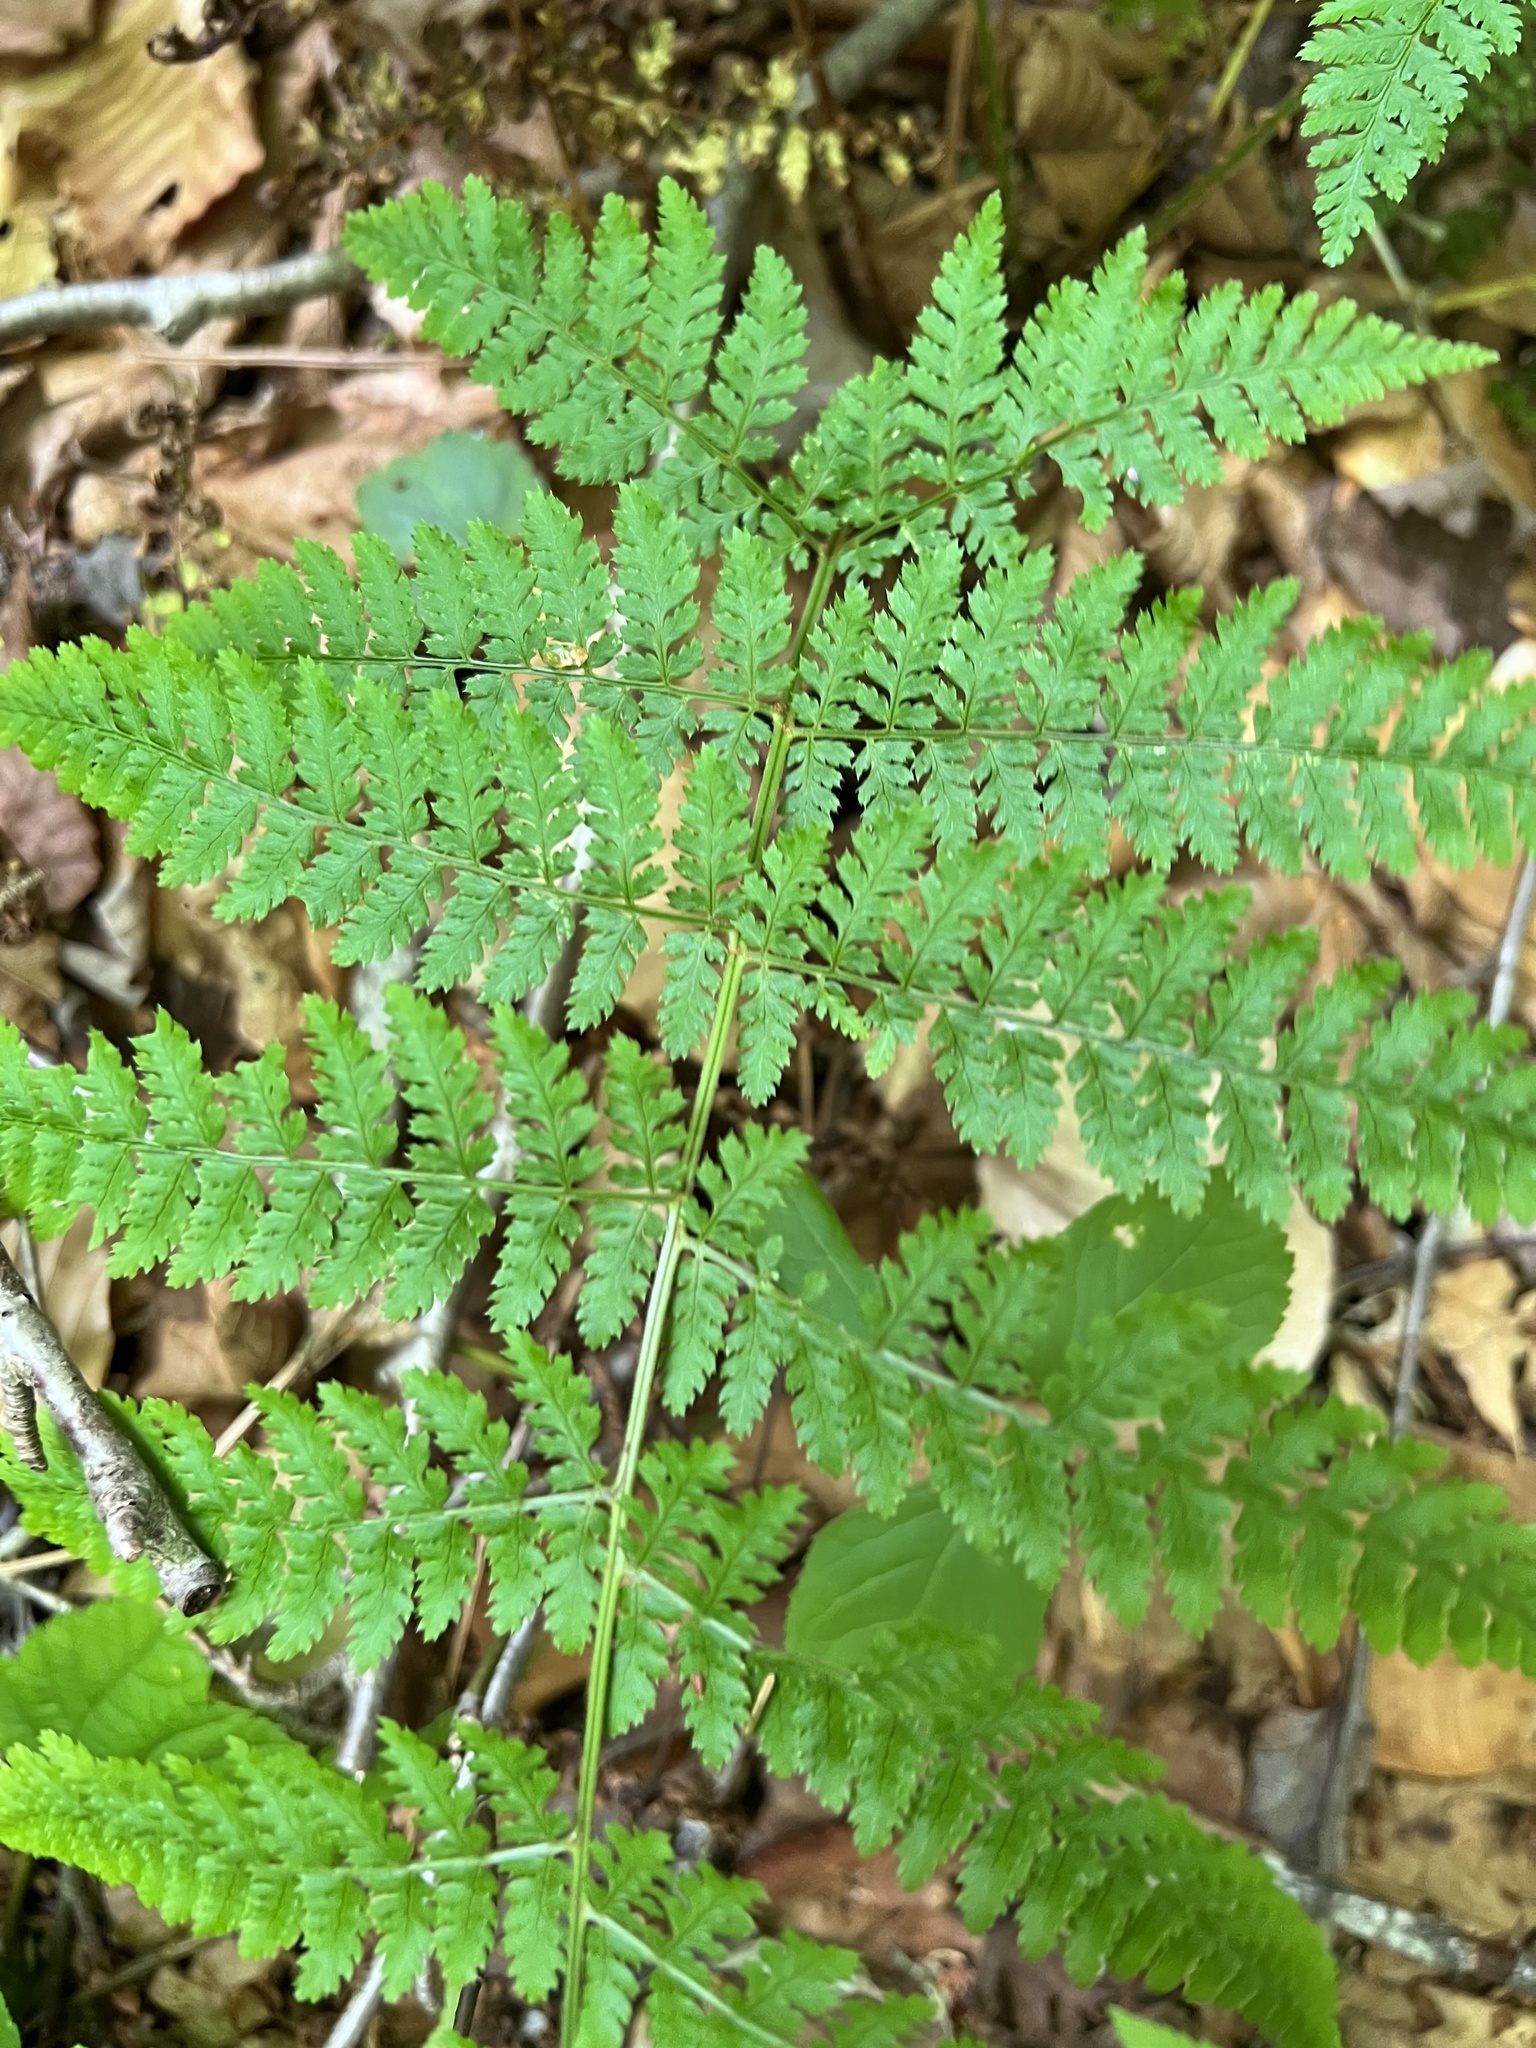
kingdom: Plantae
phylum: Tracheophyta
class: Polypodiopsida
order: Polypodiales
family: Dryopteridaceae
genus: Dryopteris
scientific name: Dryopteris intermedia
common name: Evergreen wood fern
